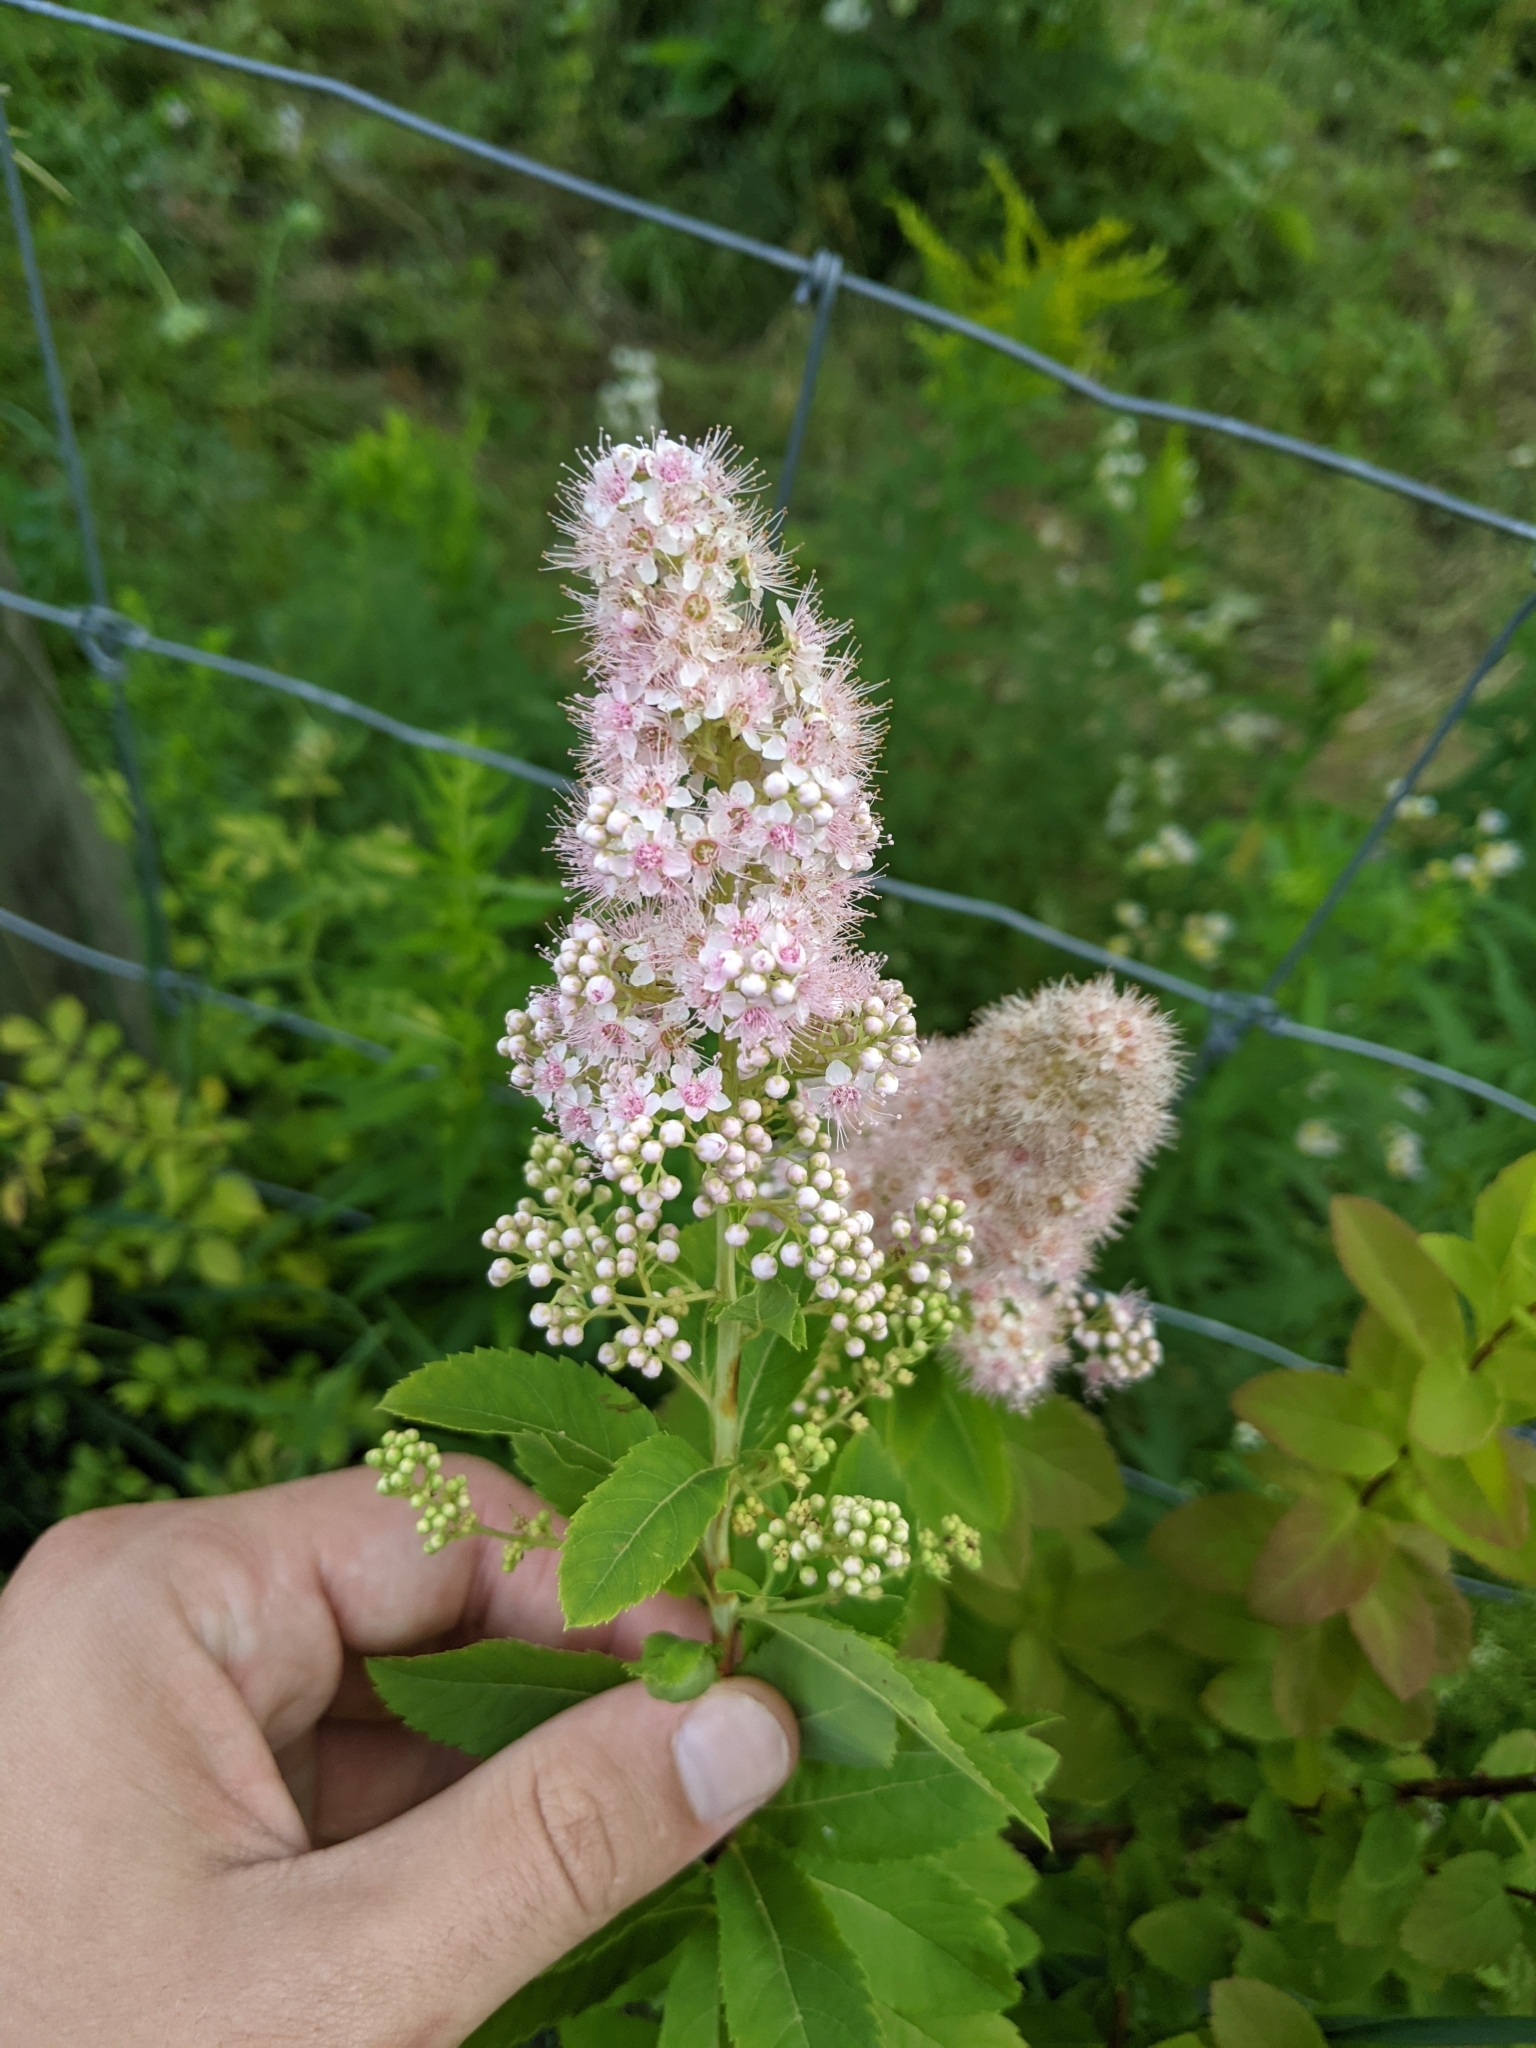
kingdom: Plantae
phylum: Tracheophyta
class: Magnoliopsida
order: Rosales
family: Rosaceae
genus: Spiraea
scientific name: Spiraea alba
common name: Pale bridewort
